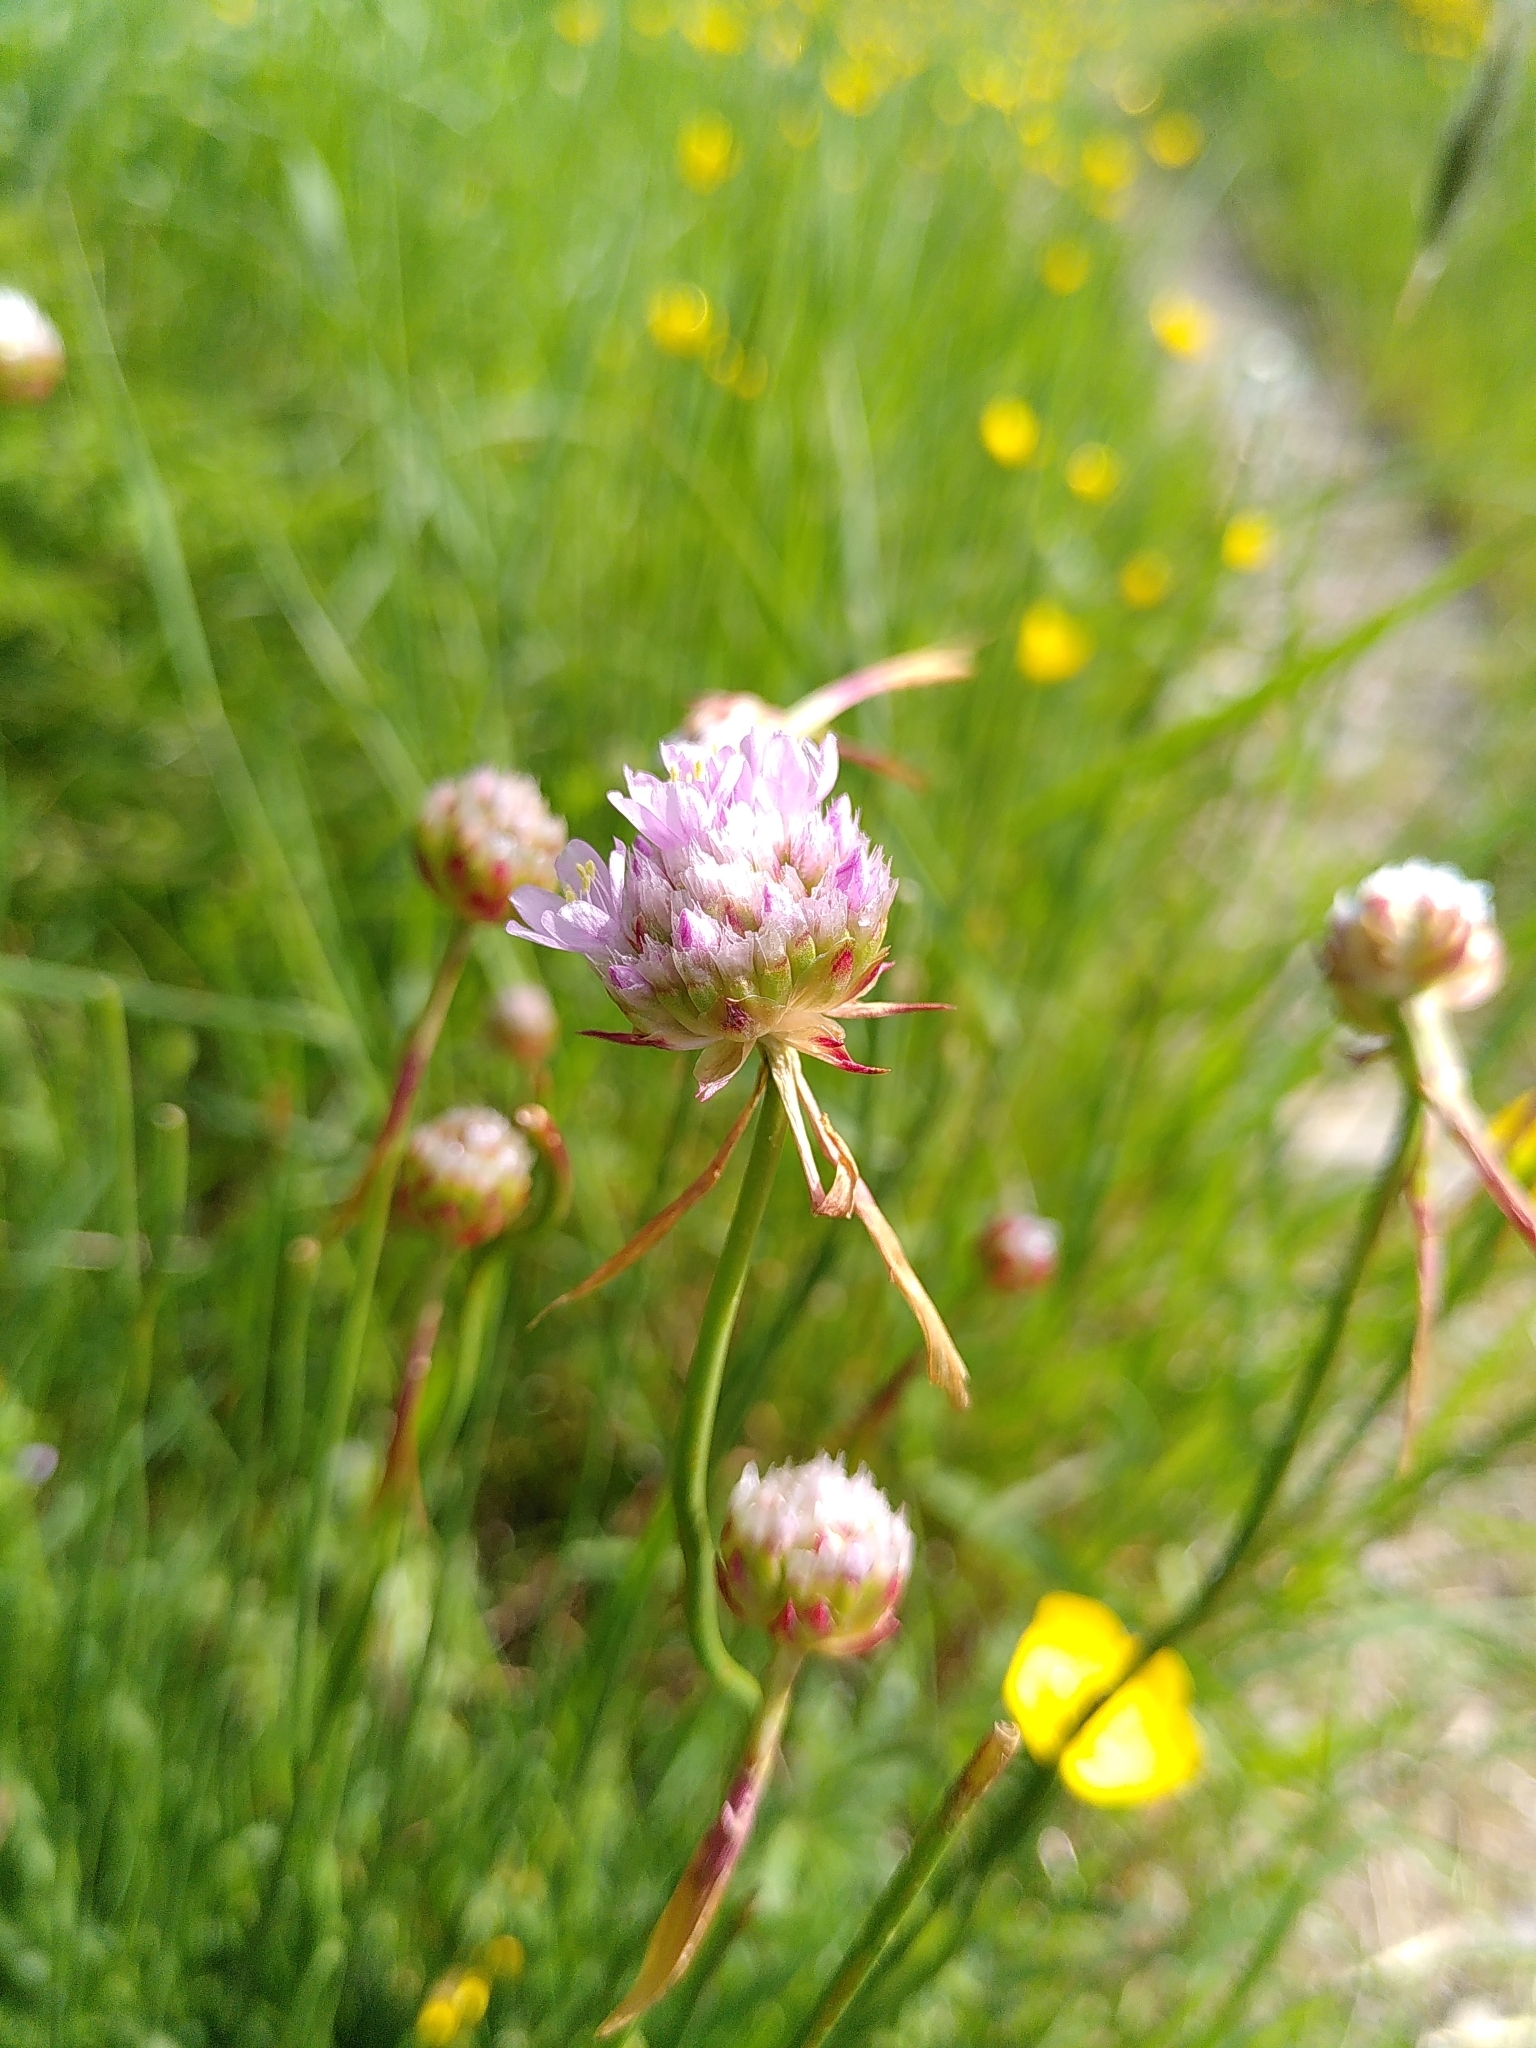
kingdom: Plantae
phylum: Tracheophyta
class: Magnoliopsida
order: Caryophyllales
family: Plumbaginaceae
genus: Armeria
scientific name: Armeria arenaria
